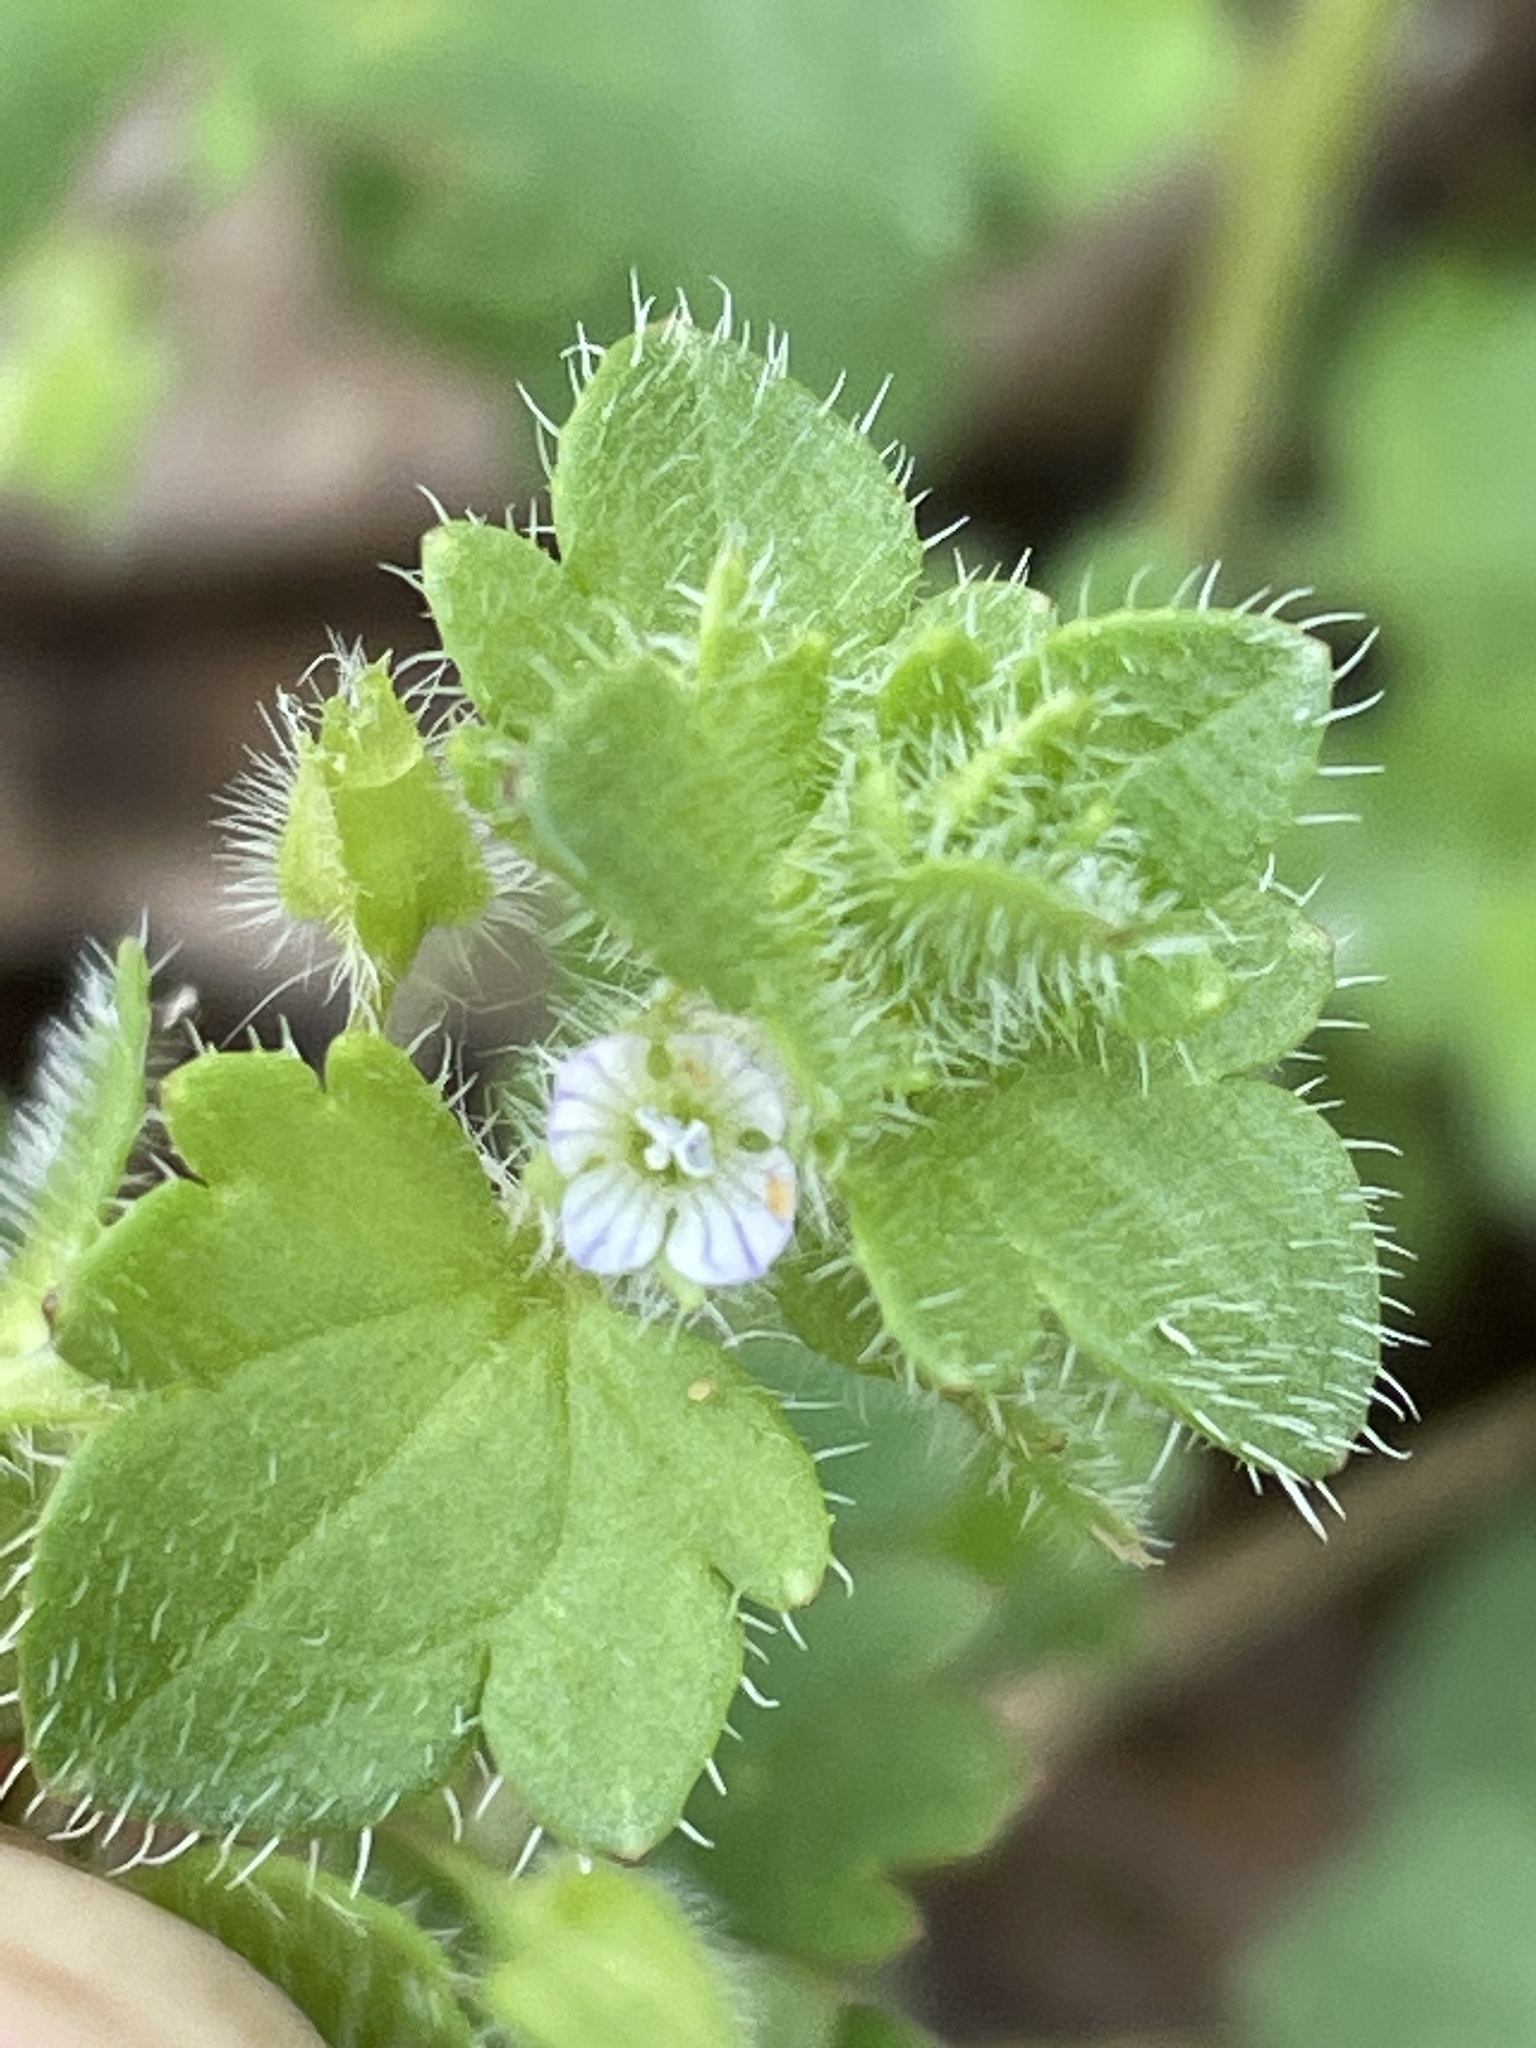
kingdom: Plantae
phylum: Tracheophyta
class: Magnoliopsida
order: Lamiales
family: Plantaginaceae
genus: Veronica
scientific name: Veronica hederifolia
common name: Ivy-leaved speedwell
